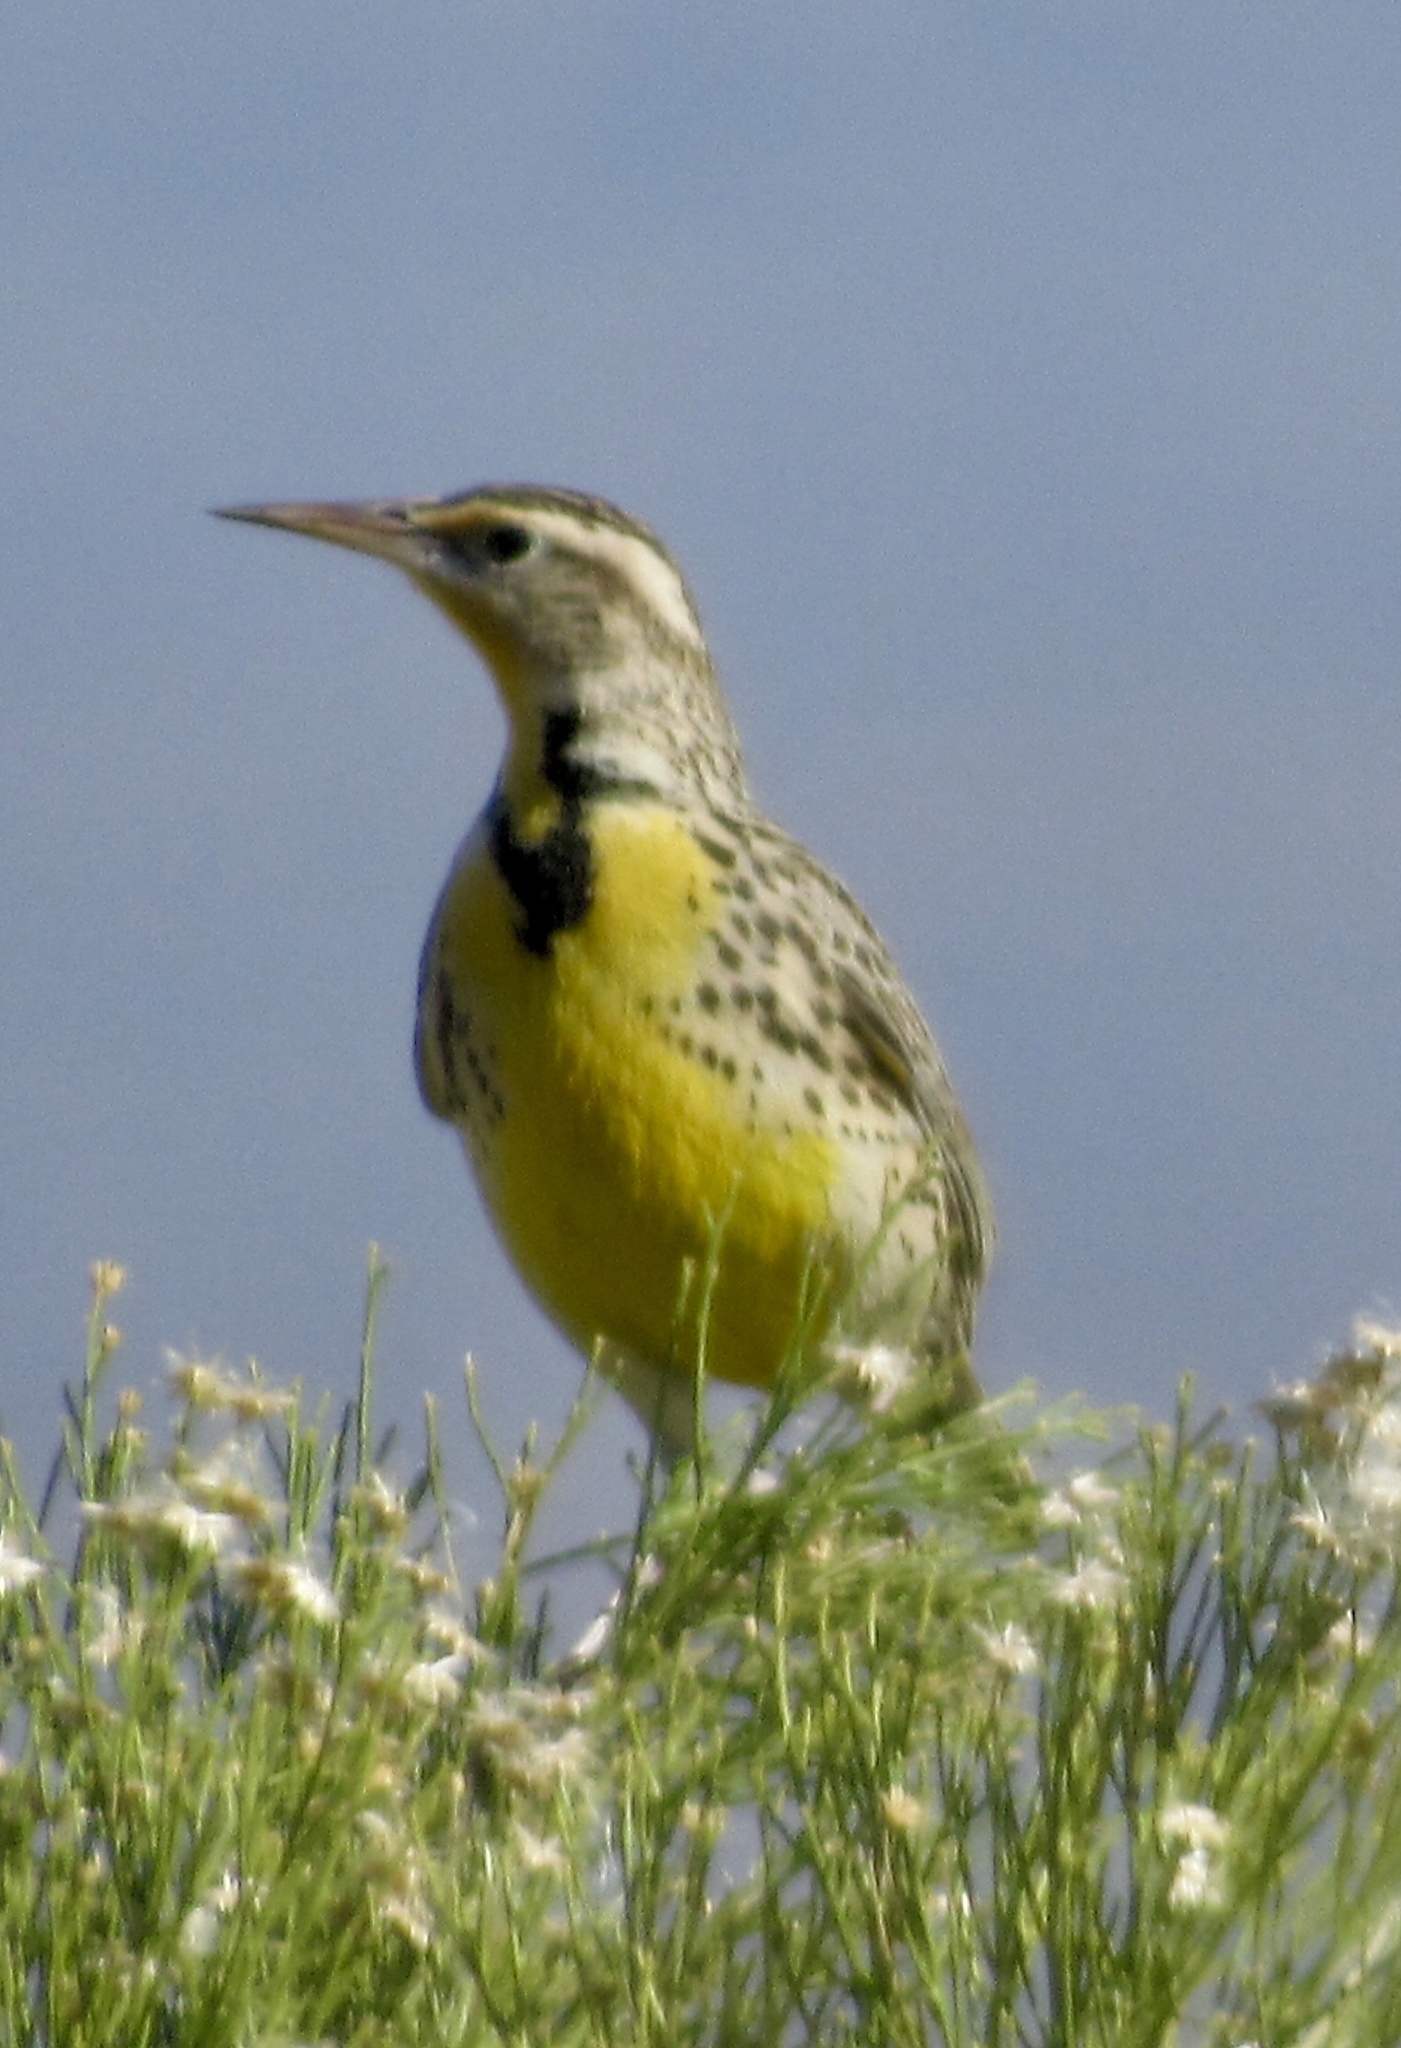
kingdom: Animalia
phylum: Chordata
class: Aves
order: Passeriformes
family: Icteridae
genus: Sturnella
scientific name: Sturnella neglecta
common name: Western meadowlark
